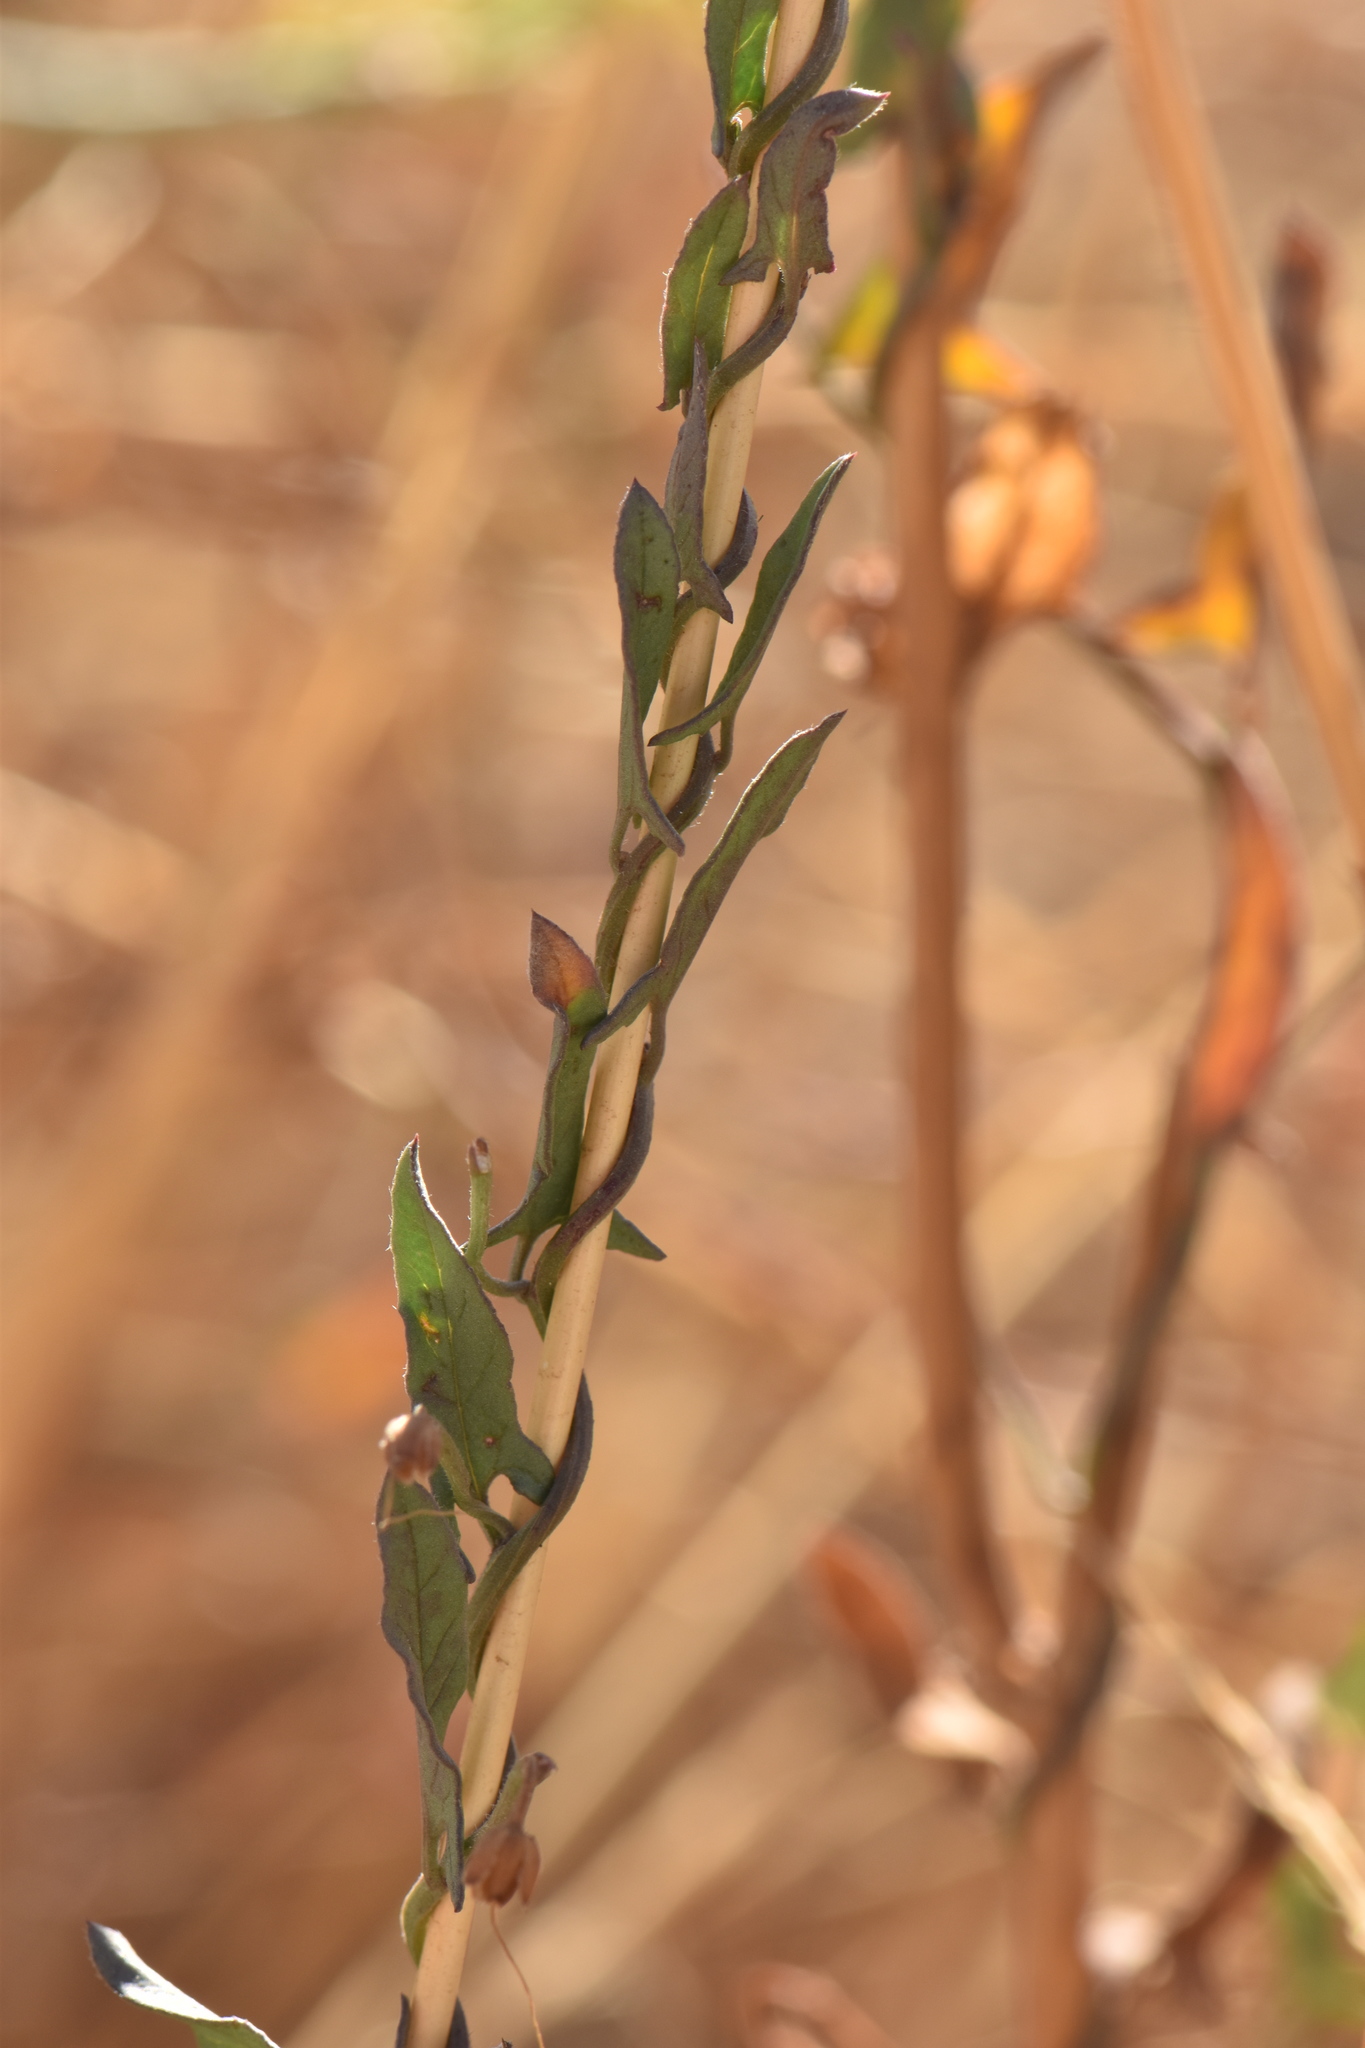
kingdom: Plantae
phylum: Tracheophyta
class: Magnoliopsida
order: Solanales
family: Convolvulaceae
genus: Convolvulus
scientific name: Convolvulus arvensis
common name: Field bindweed
